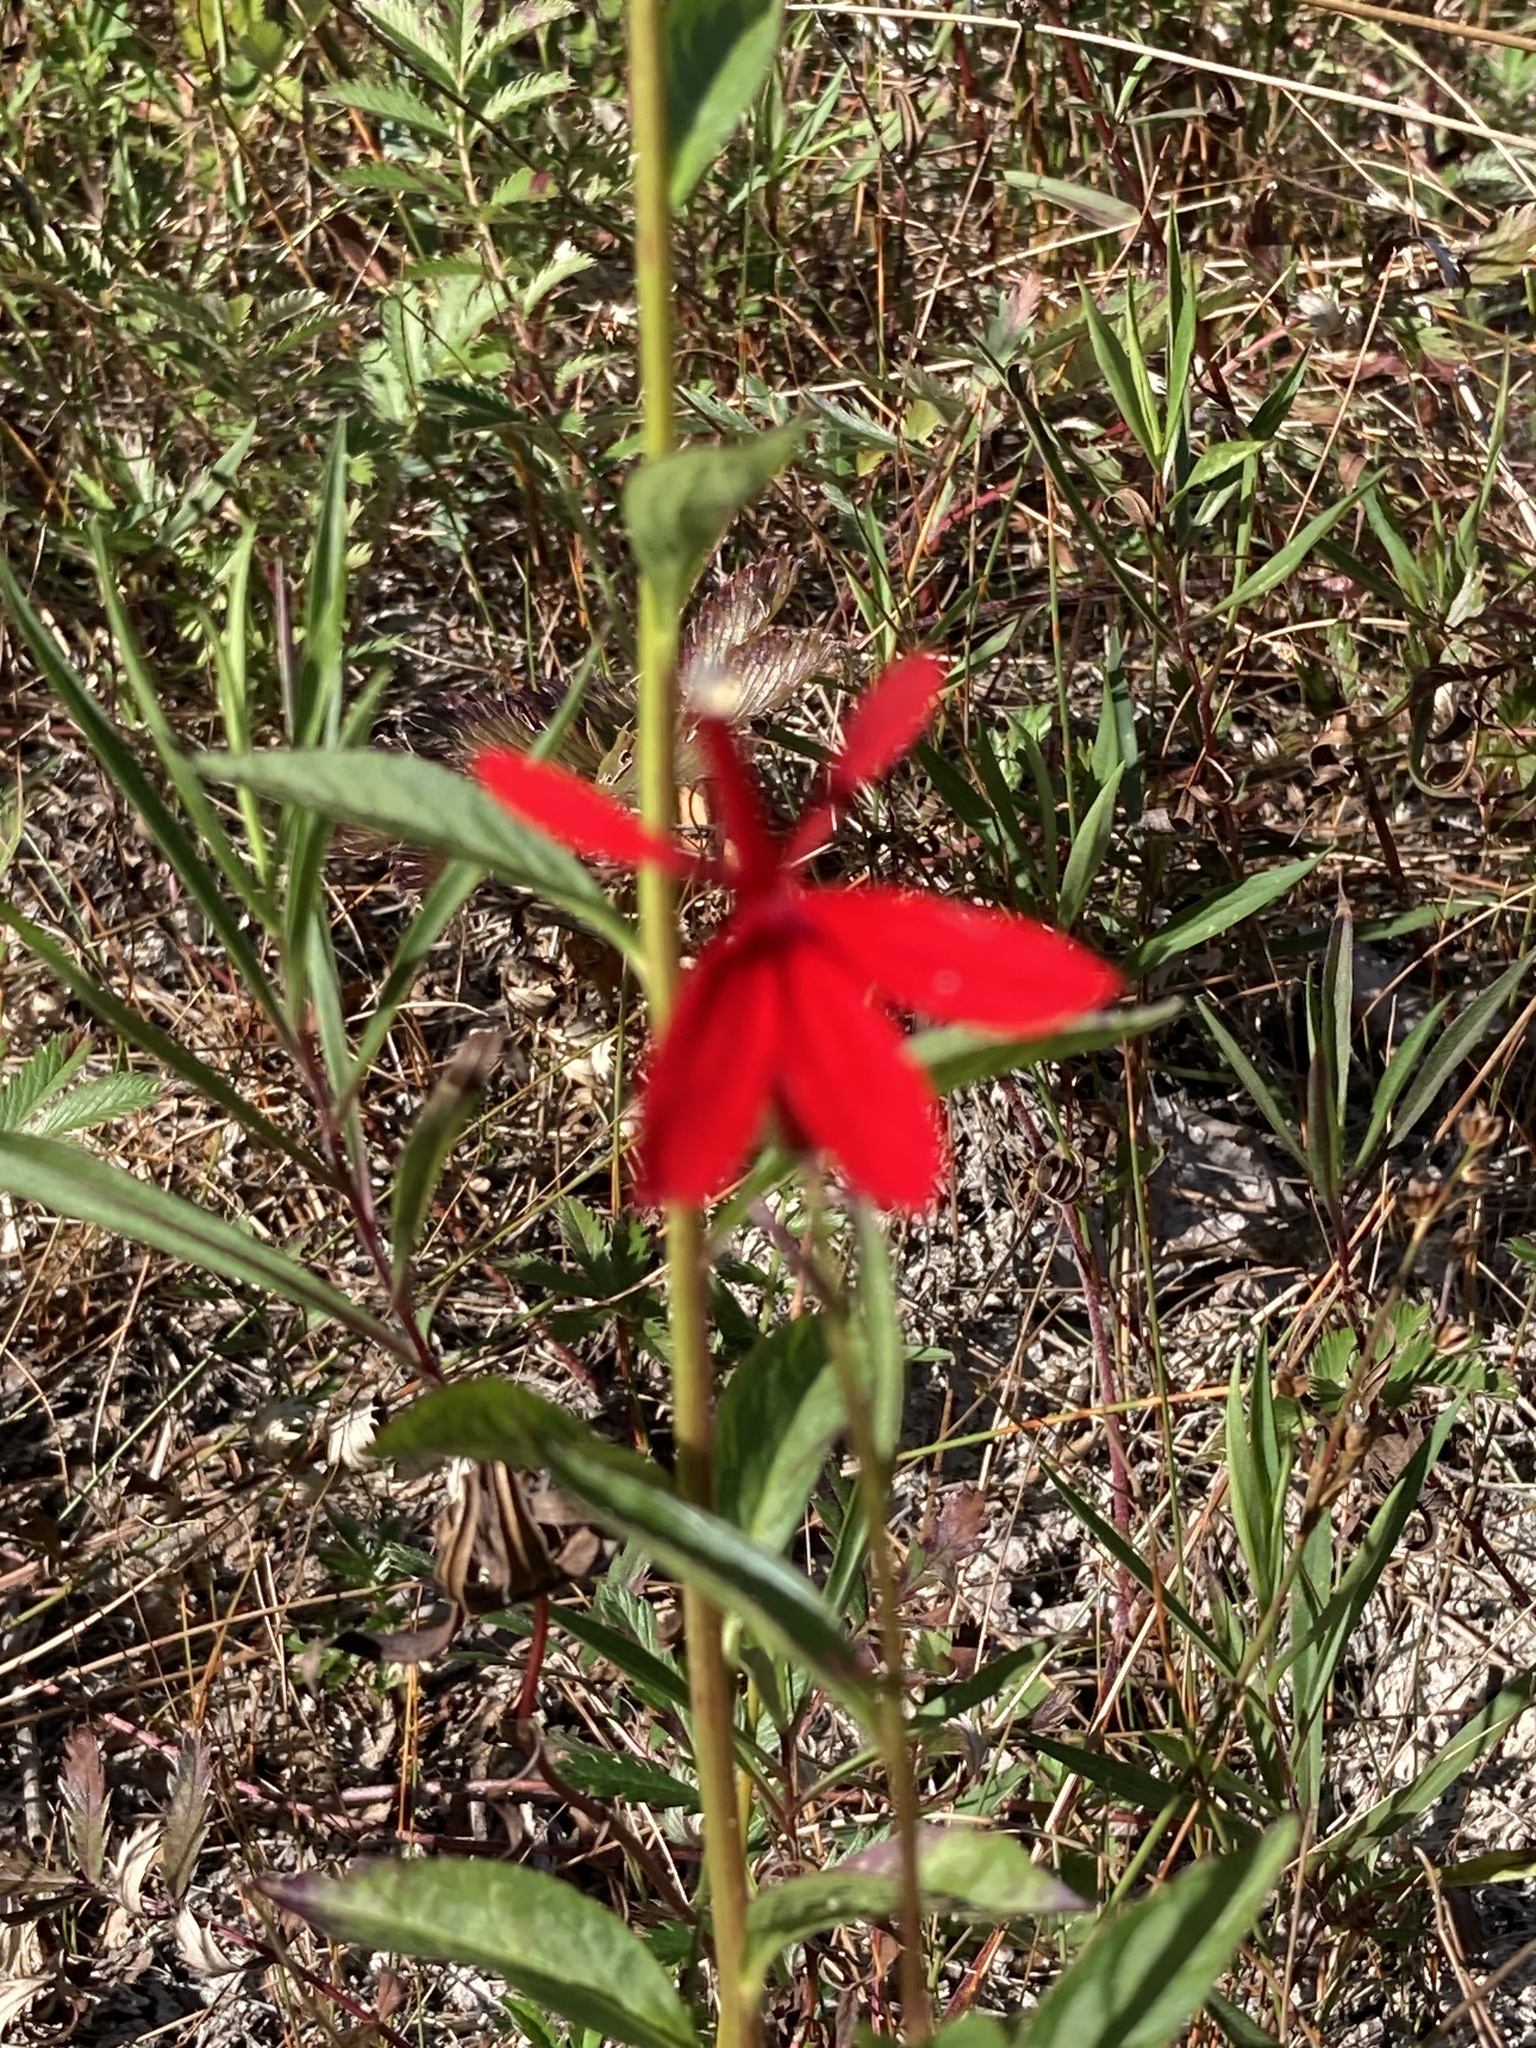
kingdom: Plantae
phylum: Tracheophyta
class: Magnoliopsida
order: Asterales
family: Campanulaceae
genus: Lobelia
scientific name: Lobelia cardinalis
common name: Cardinal flower
